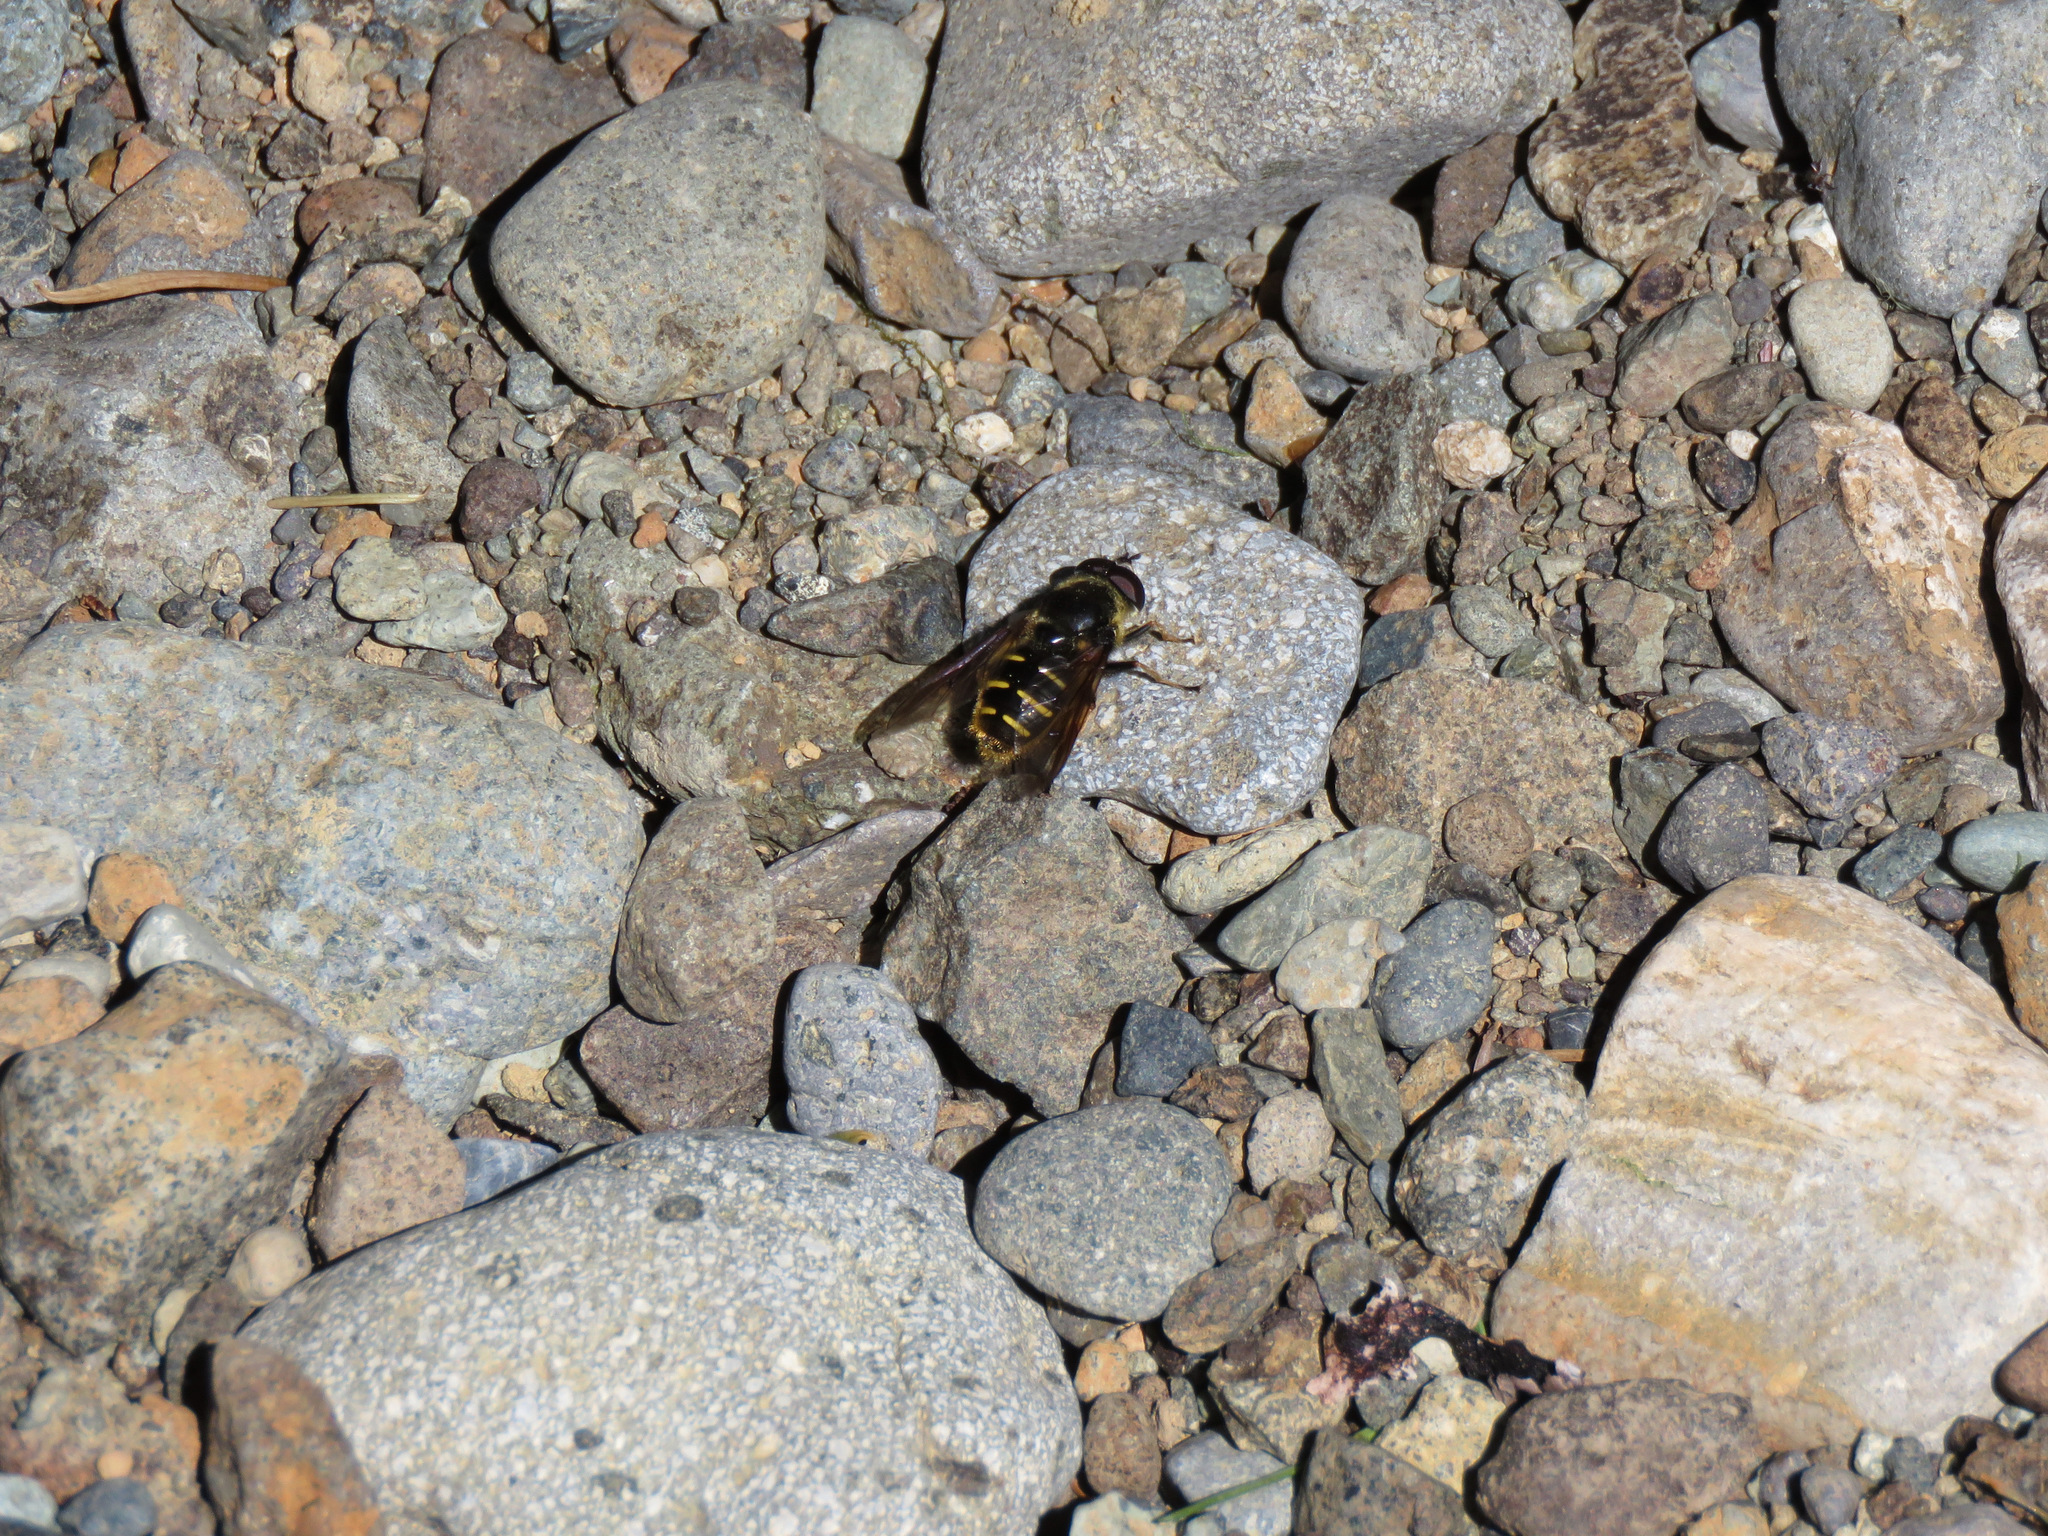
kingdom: Animalia
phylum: Arthropoda
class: Insecta
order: Diptera
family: Syrphidae
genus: Sericomyia
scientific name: Sericomyia chalcopyga
